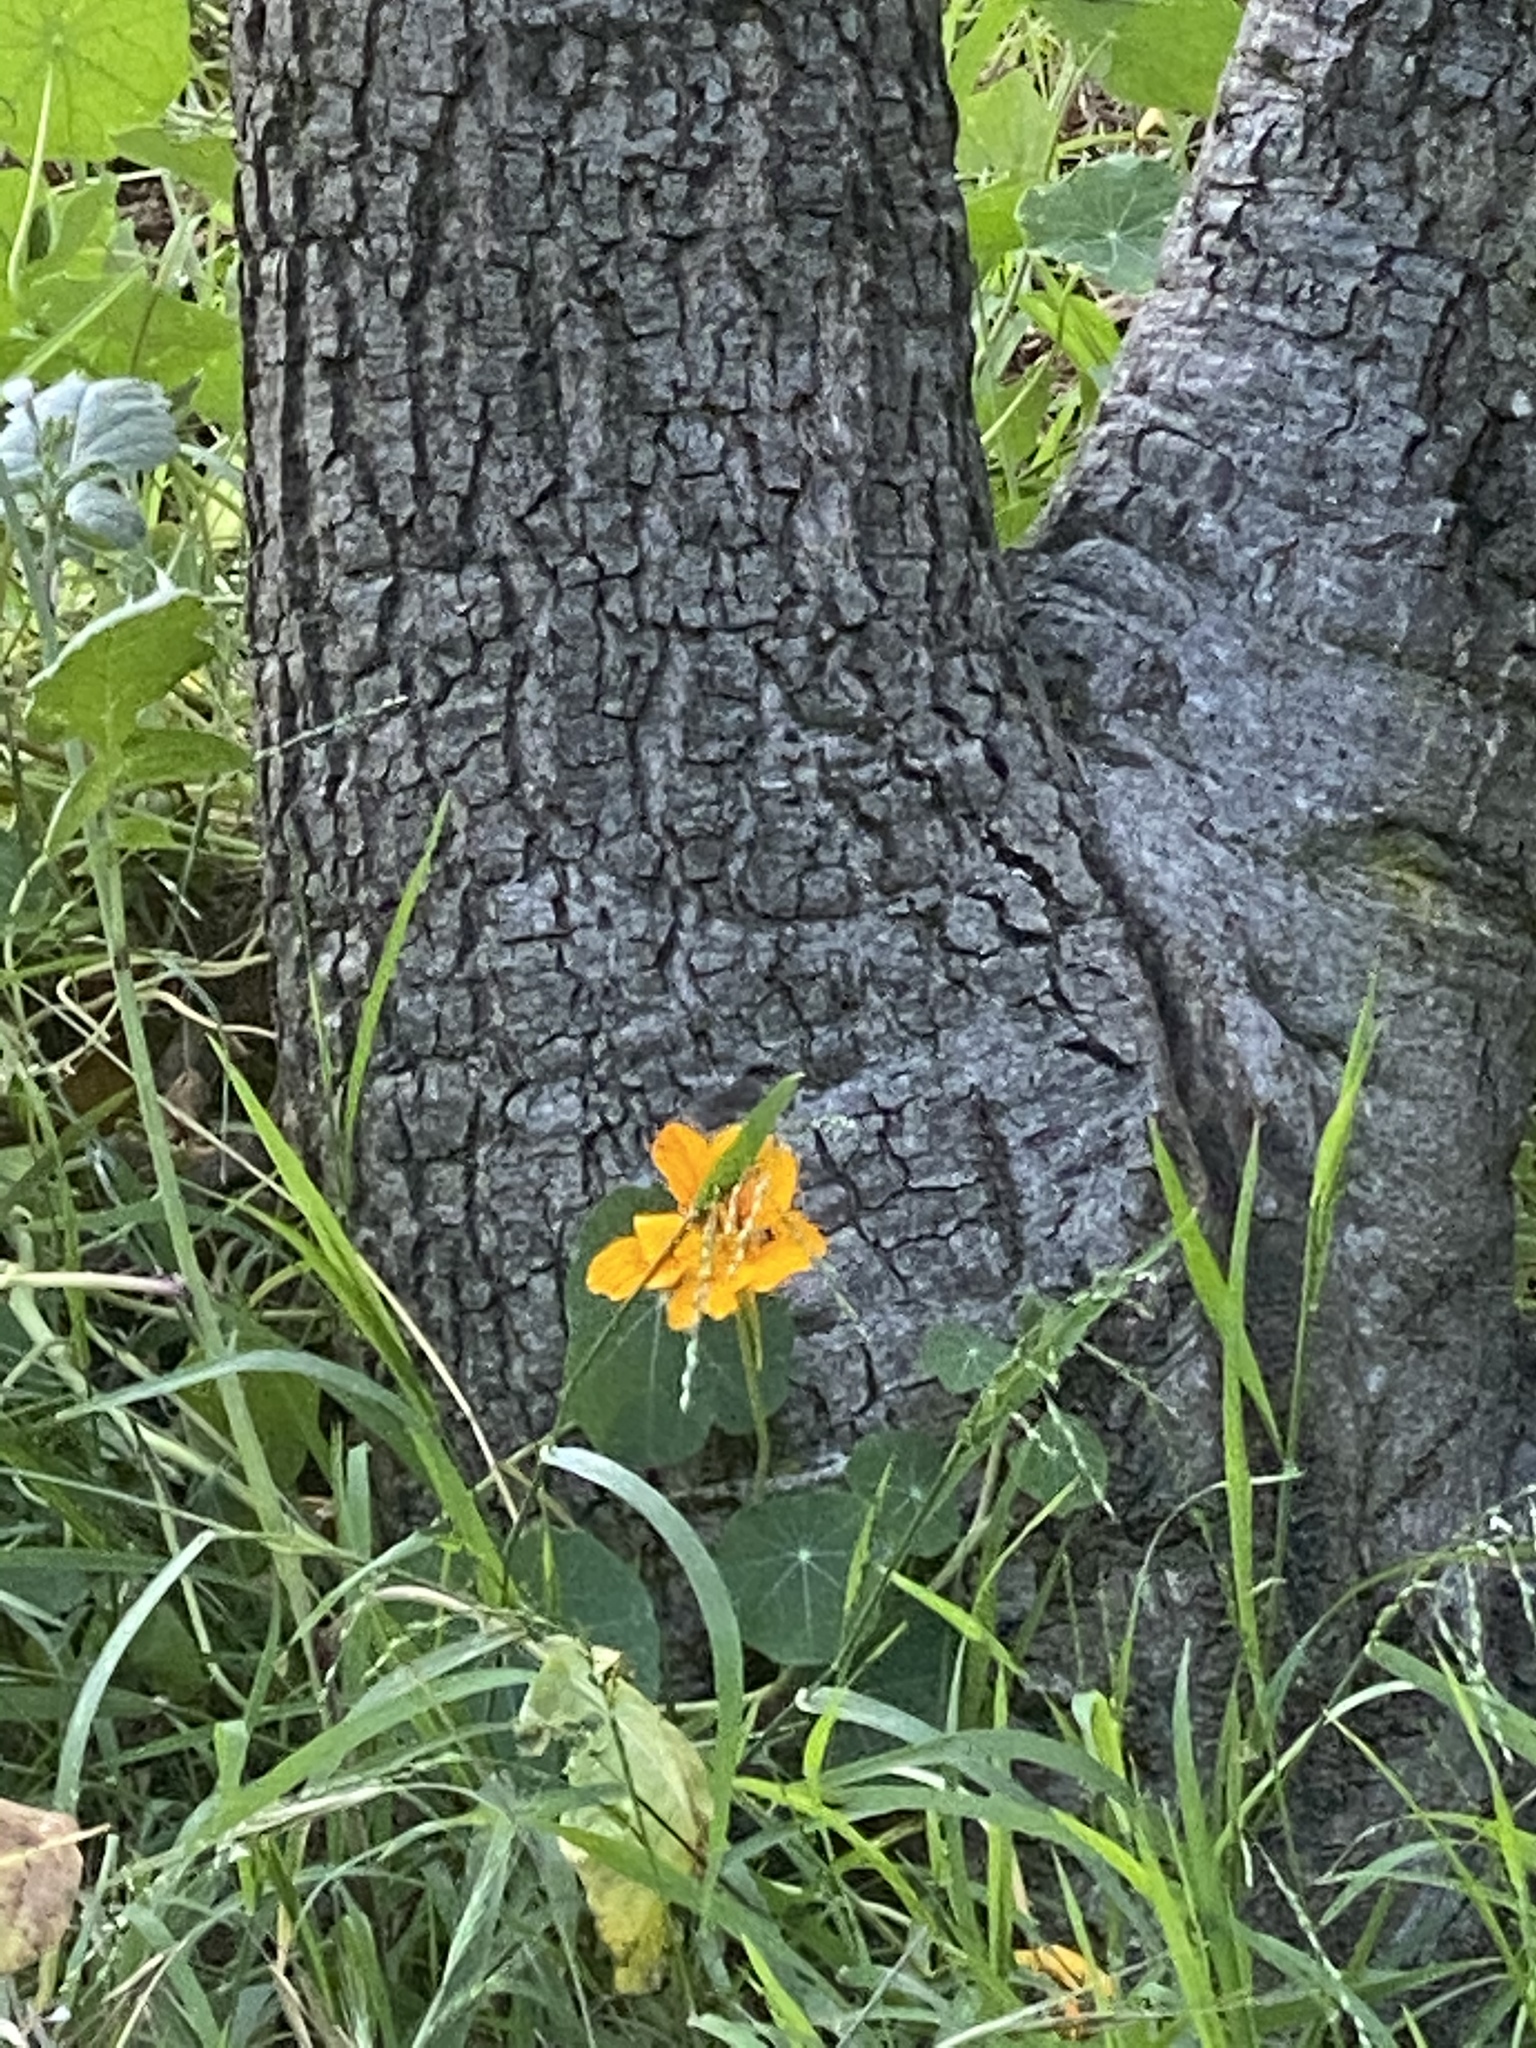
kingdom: Plantae
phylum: Tracheophyta
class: Magnoliopsida
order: Brassicales
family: Tropaeolaceae
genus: Tropaeolum
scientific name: Tropaeolum majus
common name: Nasturtium
